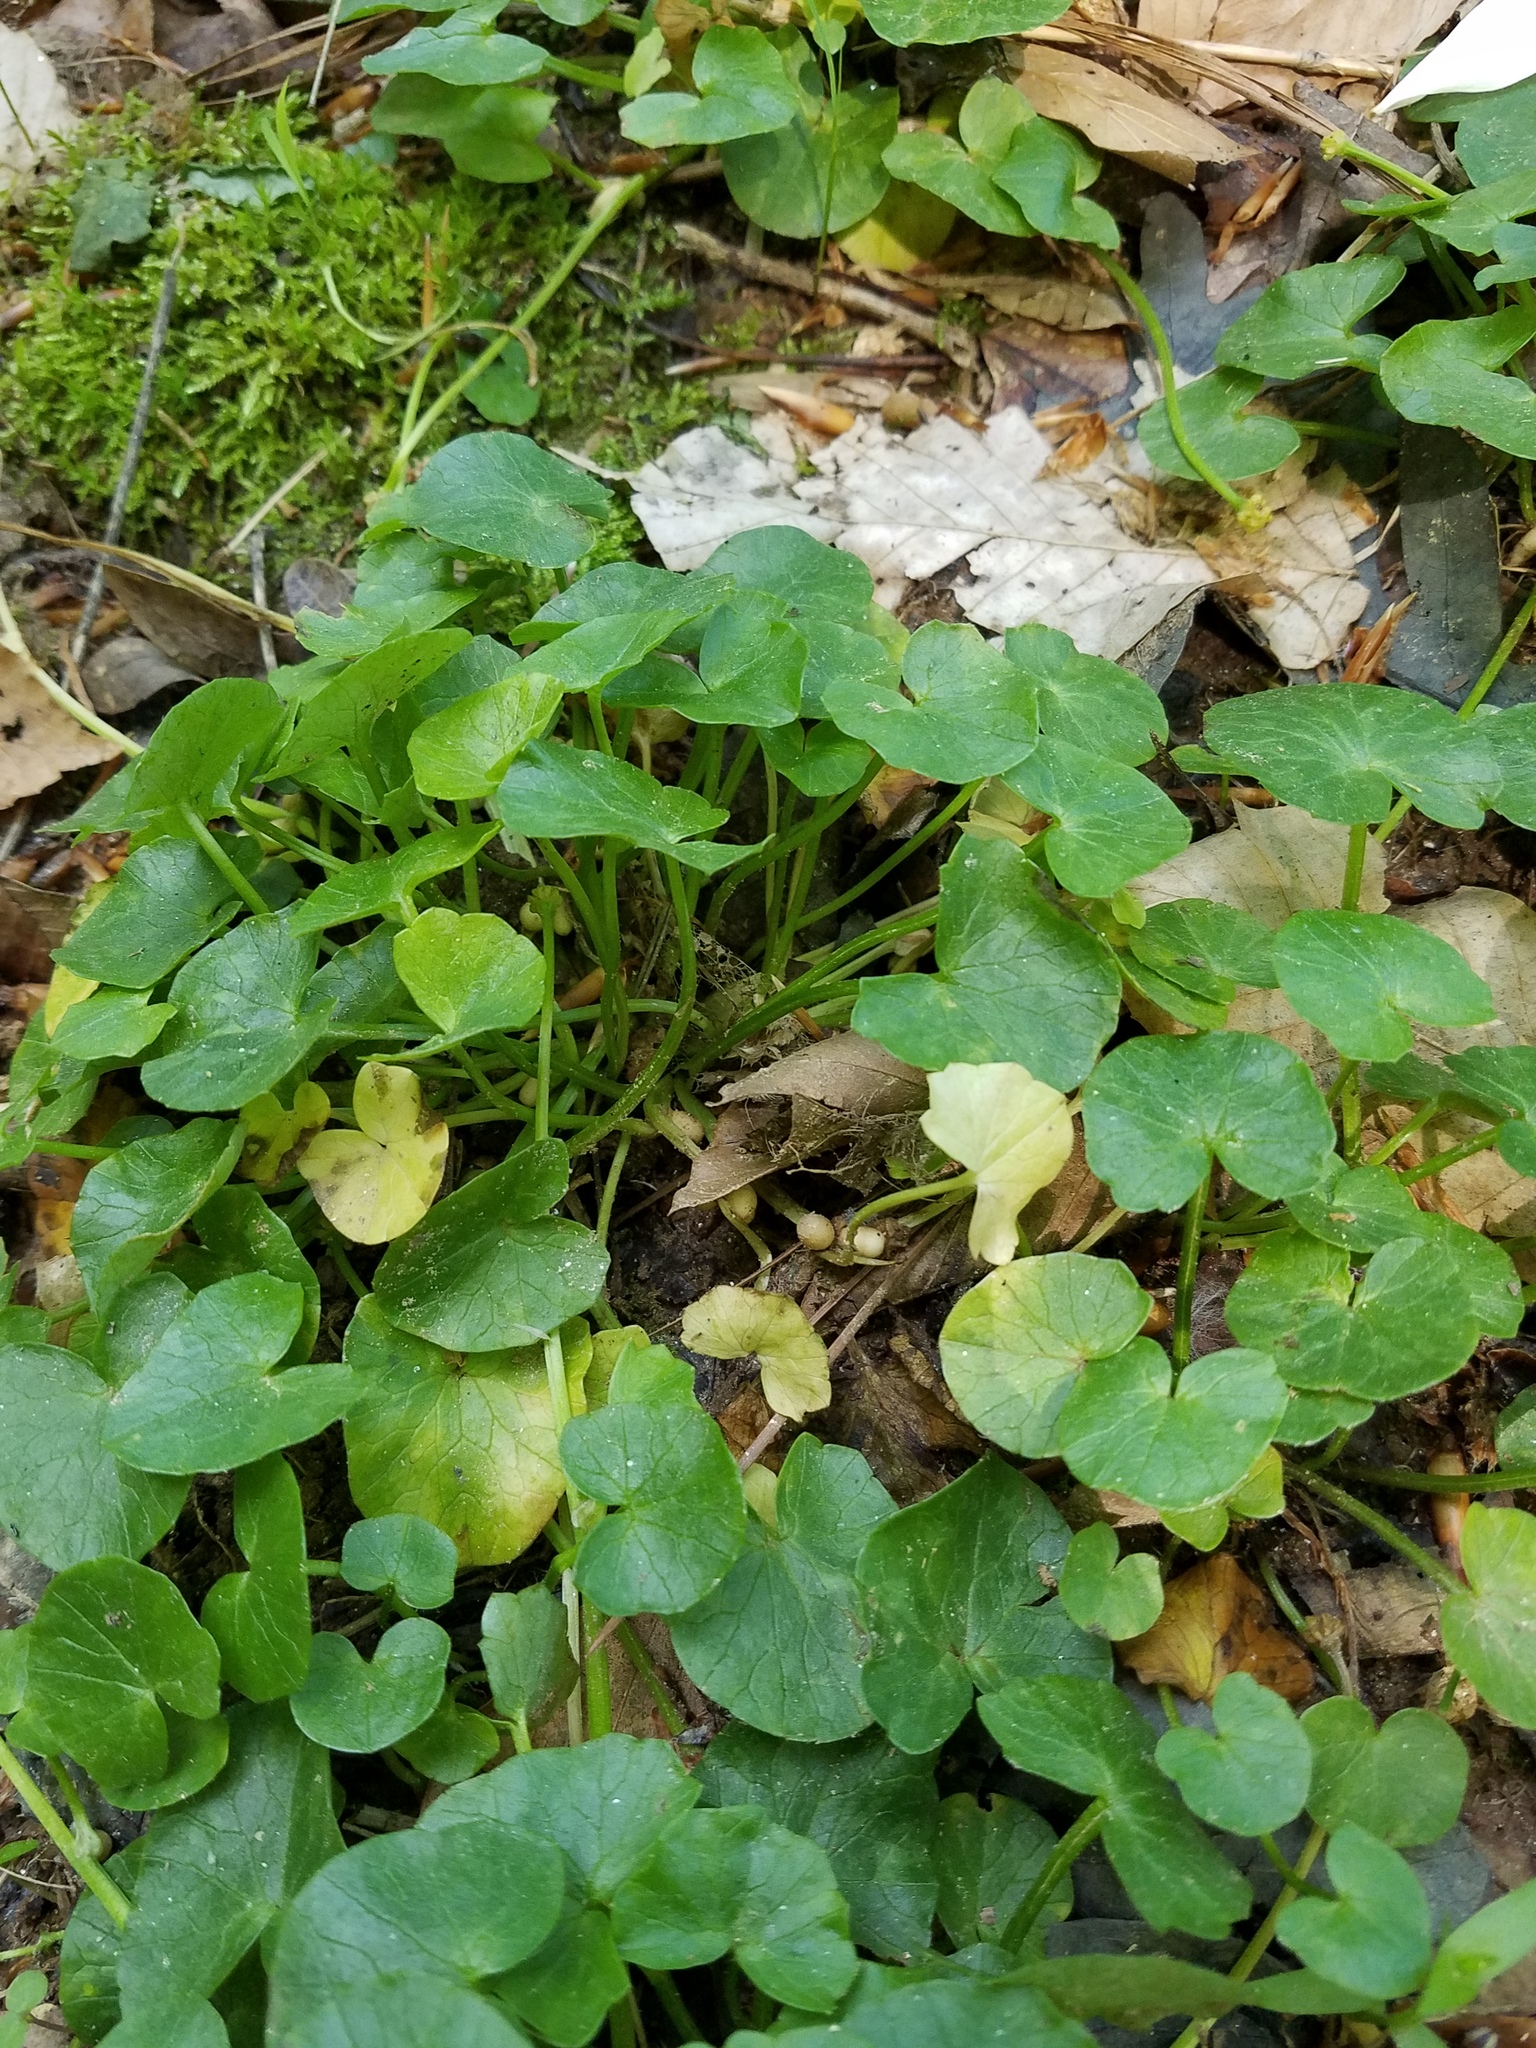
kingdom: Plantae
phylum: Tracheophyta
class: Magnoliopsida
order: Ranunculales
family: Ranunculaceae
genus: Ficaria
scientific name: Ficaria verna
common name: Lesser celandine
